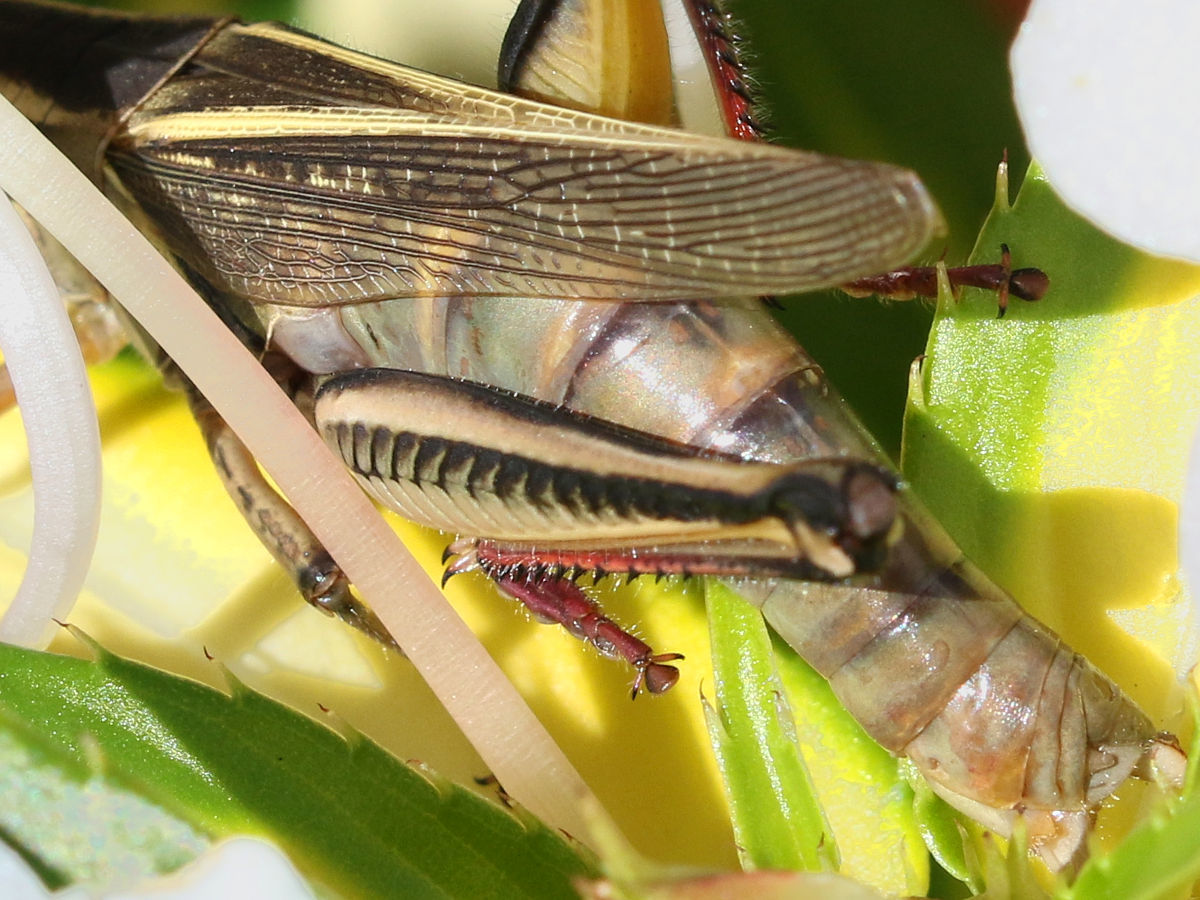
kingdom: Animalia
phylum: Arthropoda
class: Insecta
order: Orthoptera
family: Acrididae
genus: Melanoplus
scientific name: Melanoplus bivittatus
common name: Two-striped grasshopper
